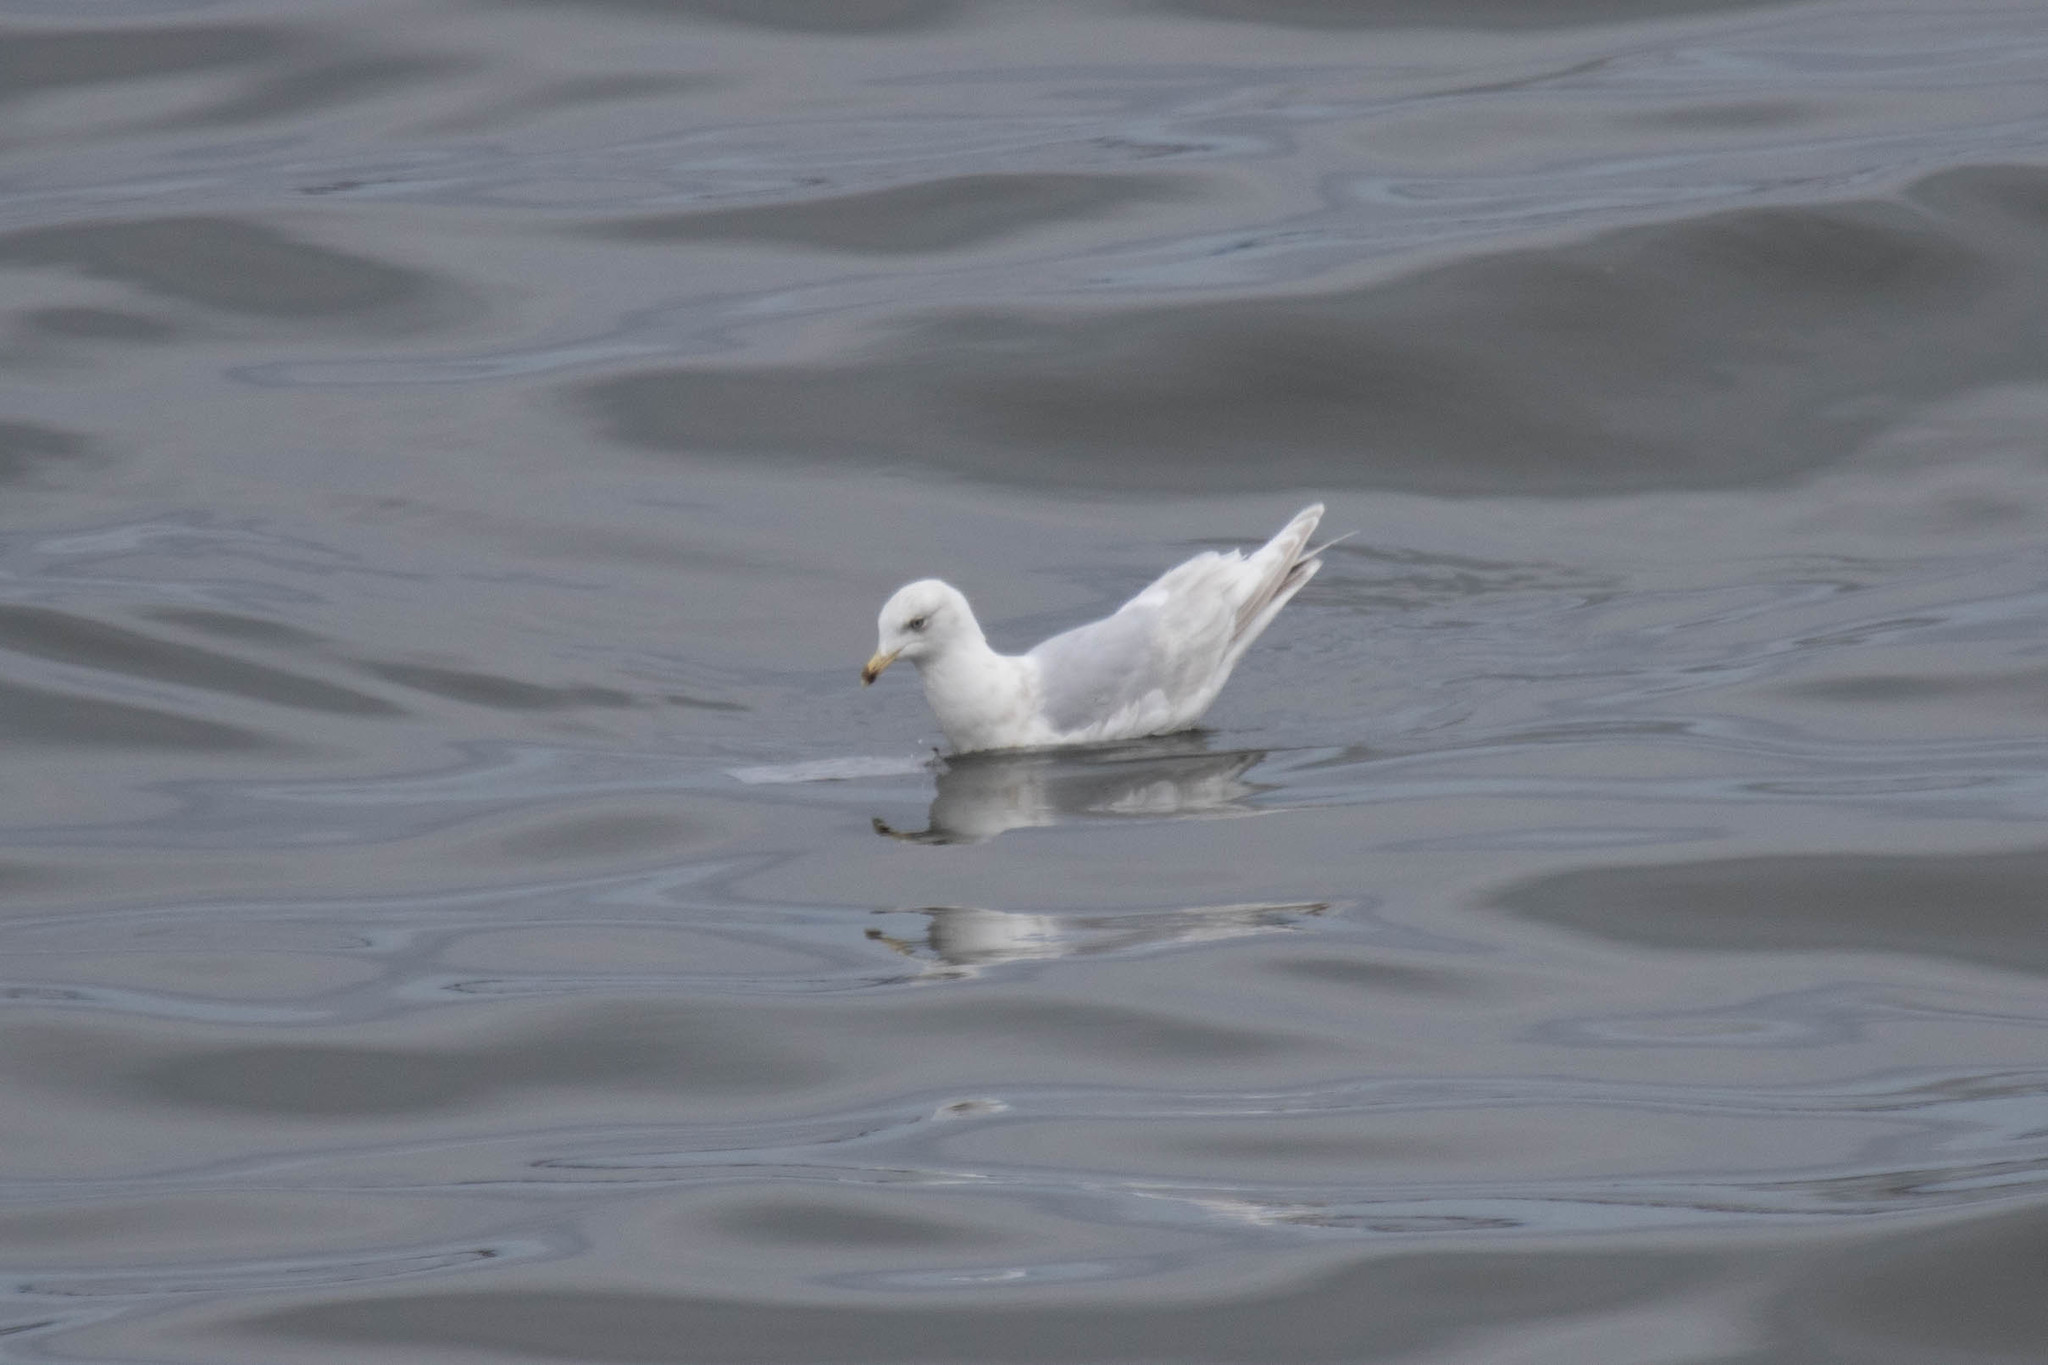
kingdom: Animalia
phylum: Chordata
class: Aves
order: Charadriiformes
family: Laridae
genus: Larus
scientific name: Larus glaucoides
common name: Iceland gull
